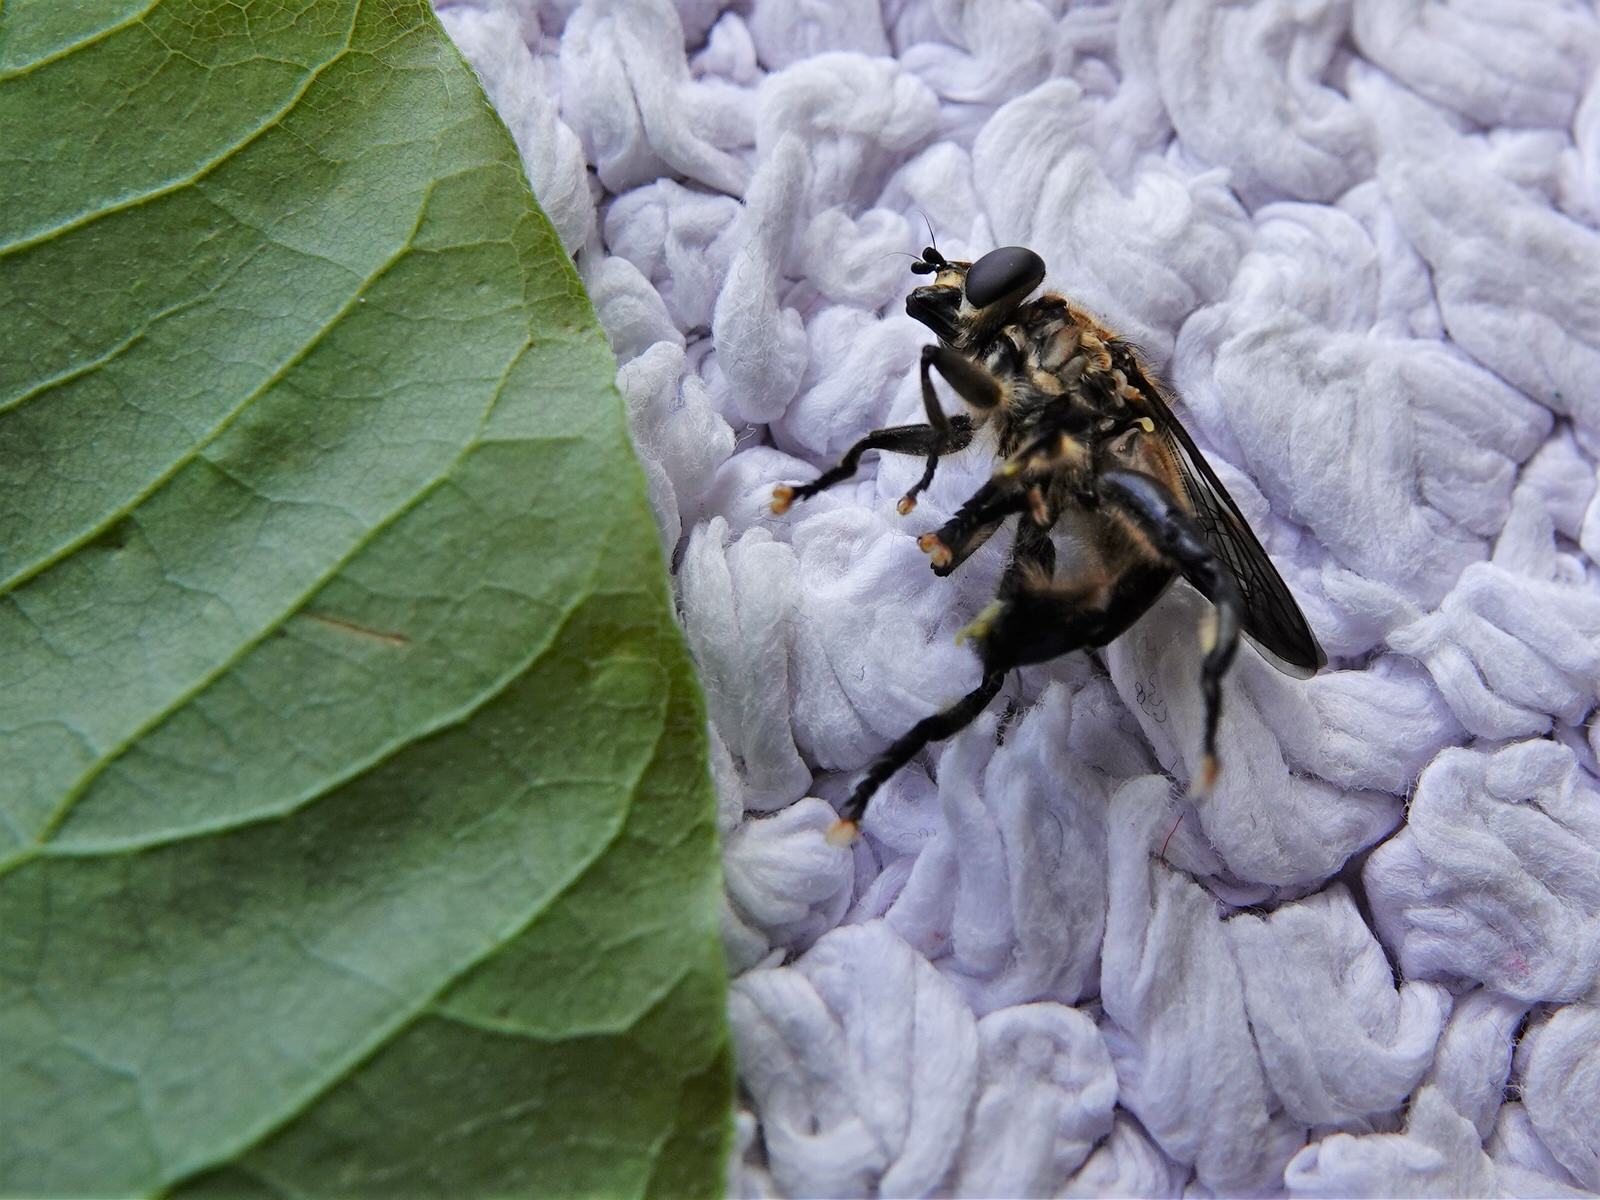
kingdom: Animalia
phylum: Arthropoda
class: Insecta
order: Diptera
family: Syrphidae
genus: Orthoprosopa
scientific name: Orthoprosopa bilineata
